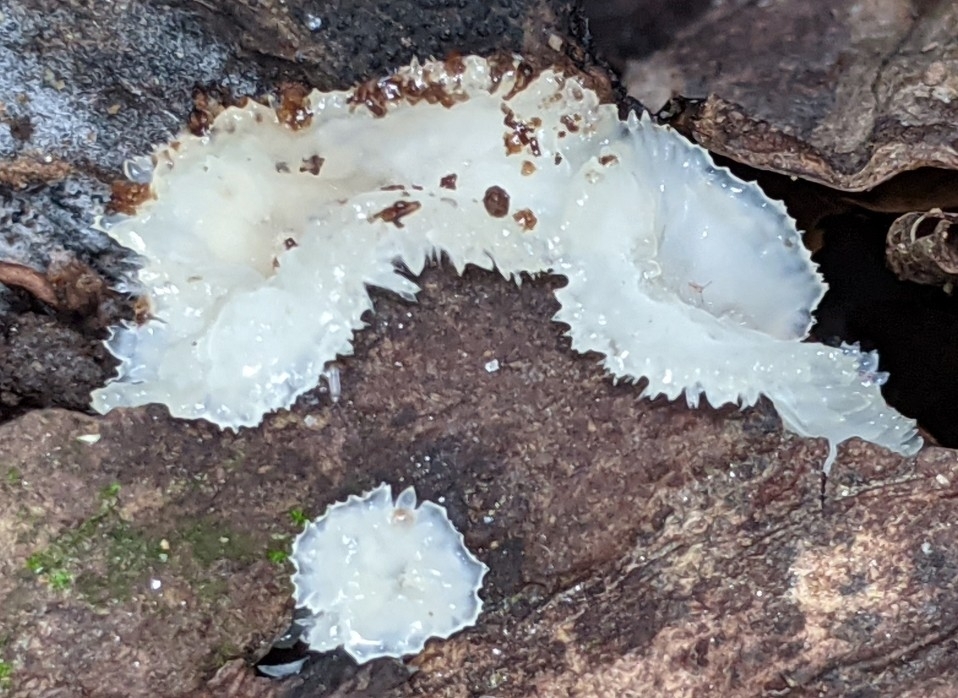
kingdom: Fungi
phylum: Basidiomycota
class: Tremellomycetes
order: Tremellales
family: Tremellaceae
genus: Tremella
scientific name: Tremella fuciformis
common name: Snow fungus
